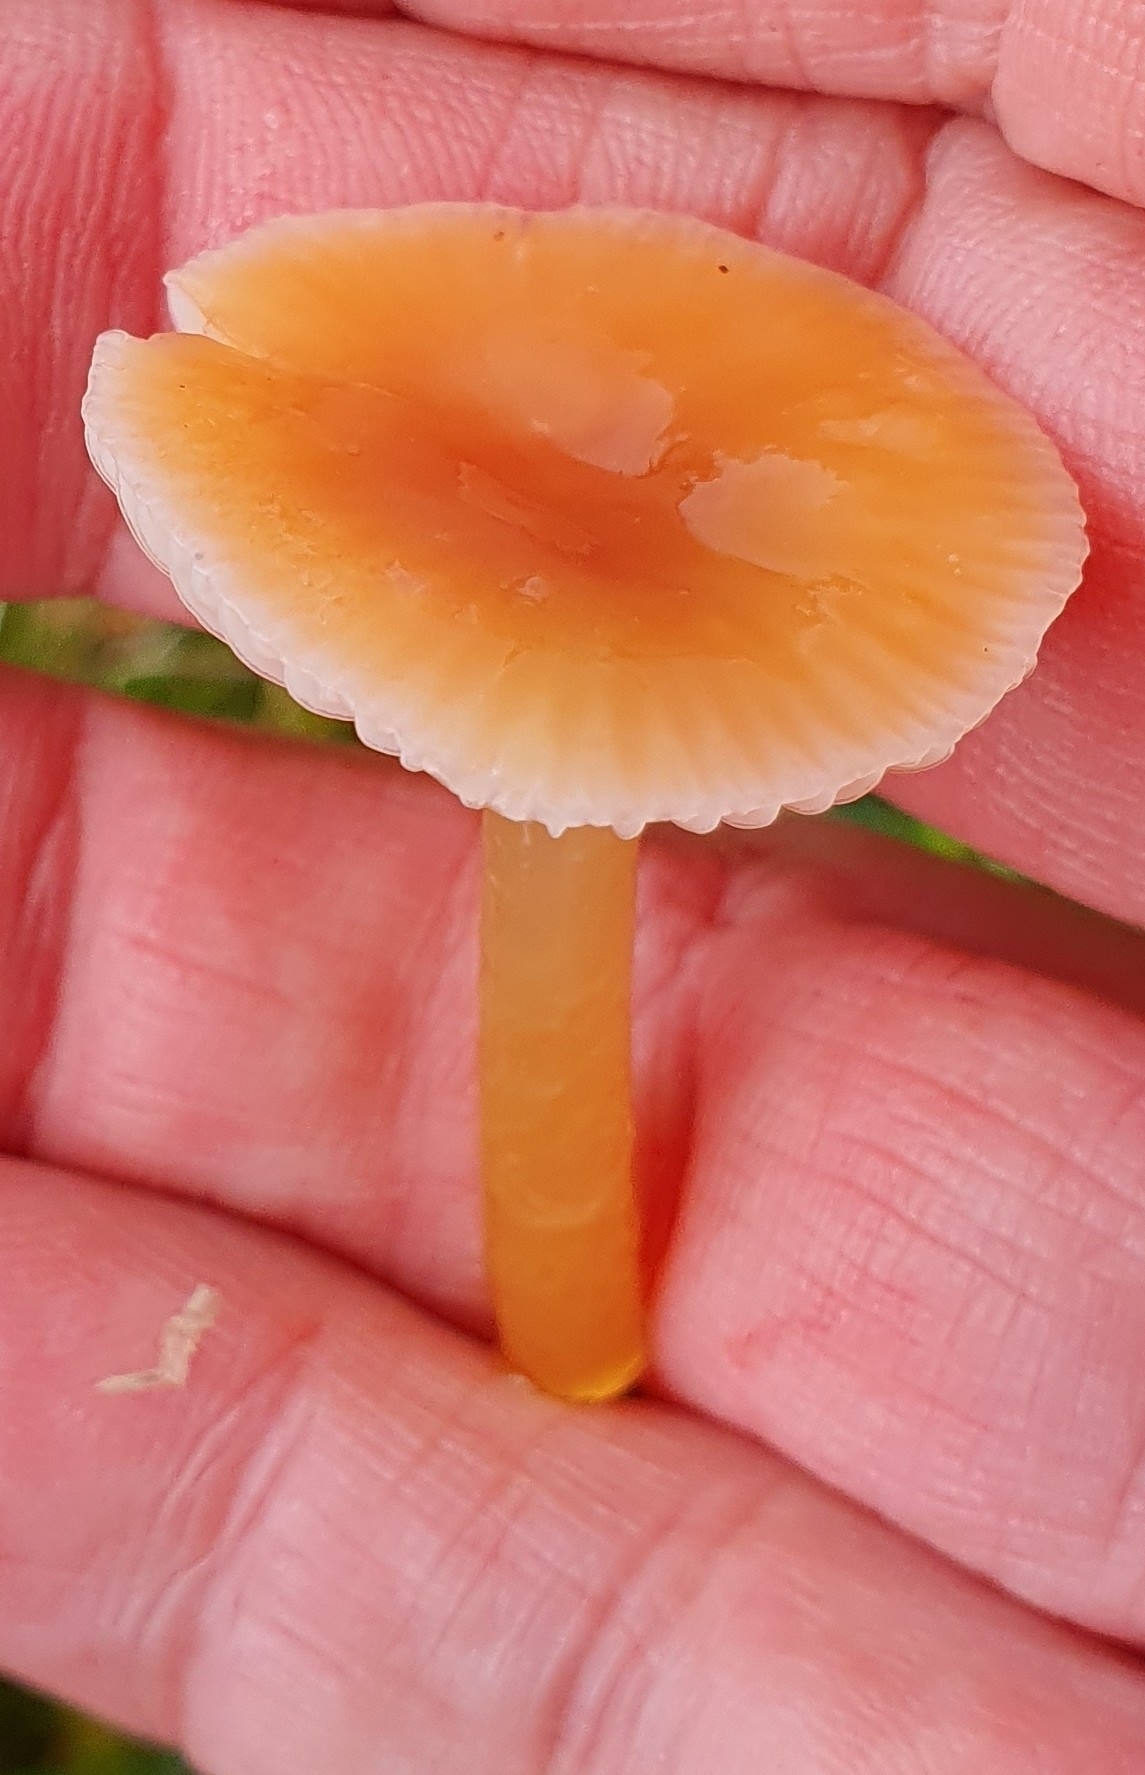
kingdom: Fungi
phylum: Basidiomycota
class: Agaricomycetes
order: Agaricales
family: Hygrophoraceae
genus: Gliophorus
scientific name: Gliophorus laetus
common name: Heath waxcap
